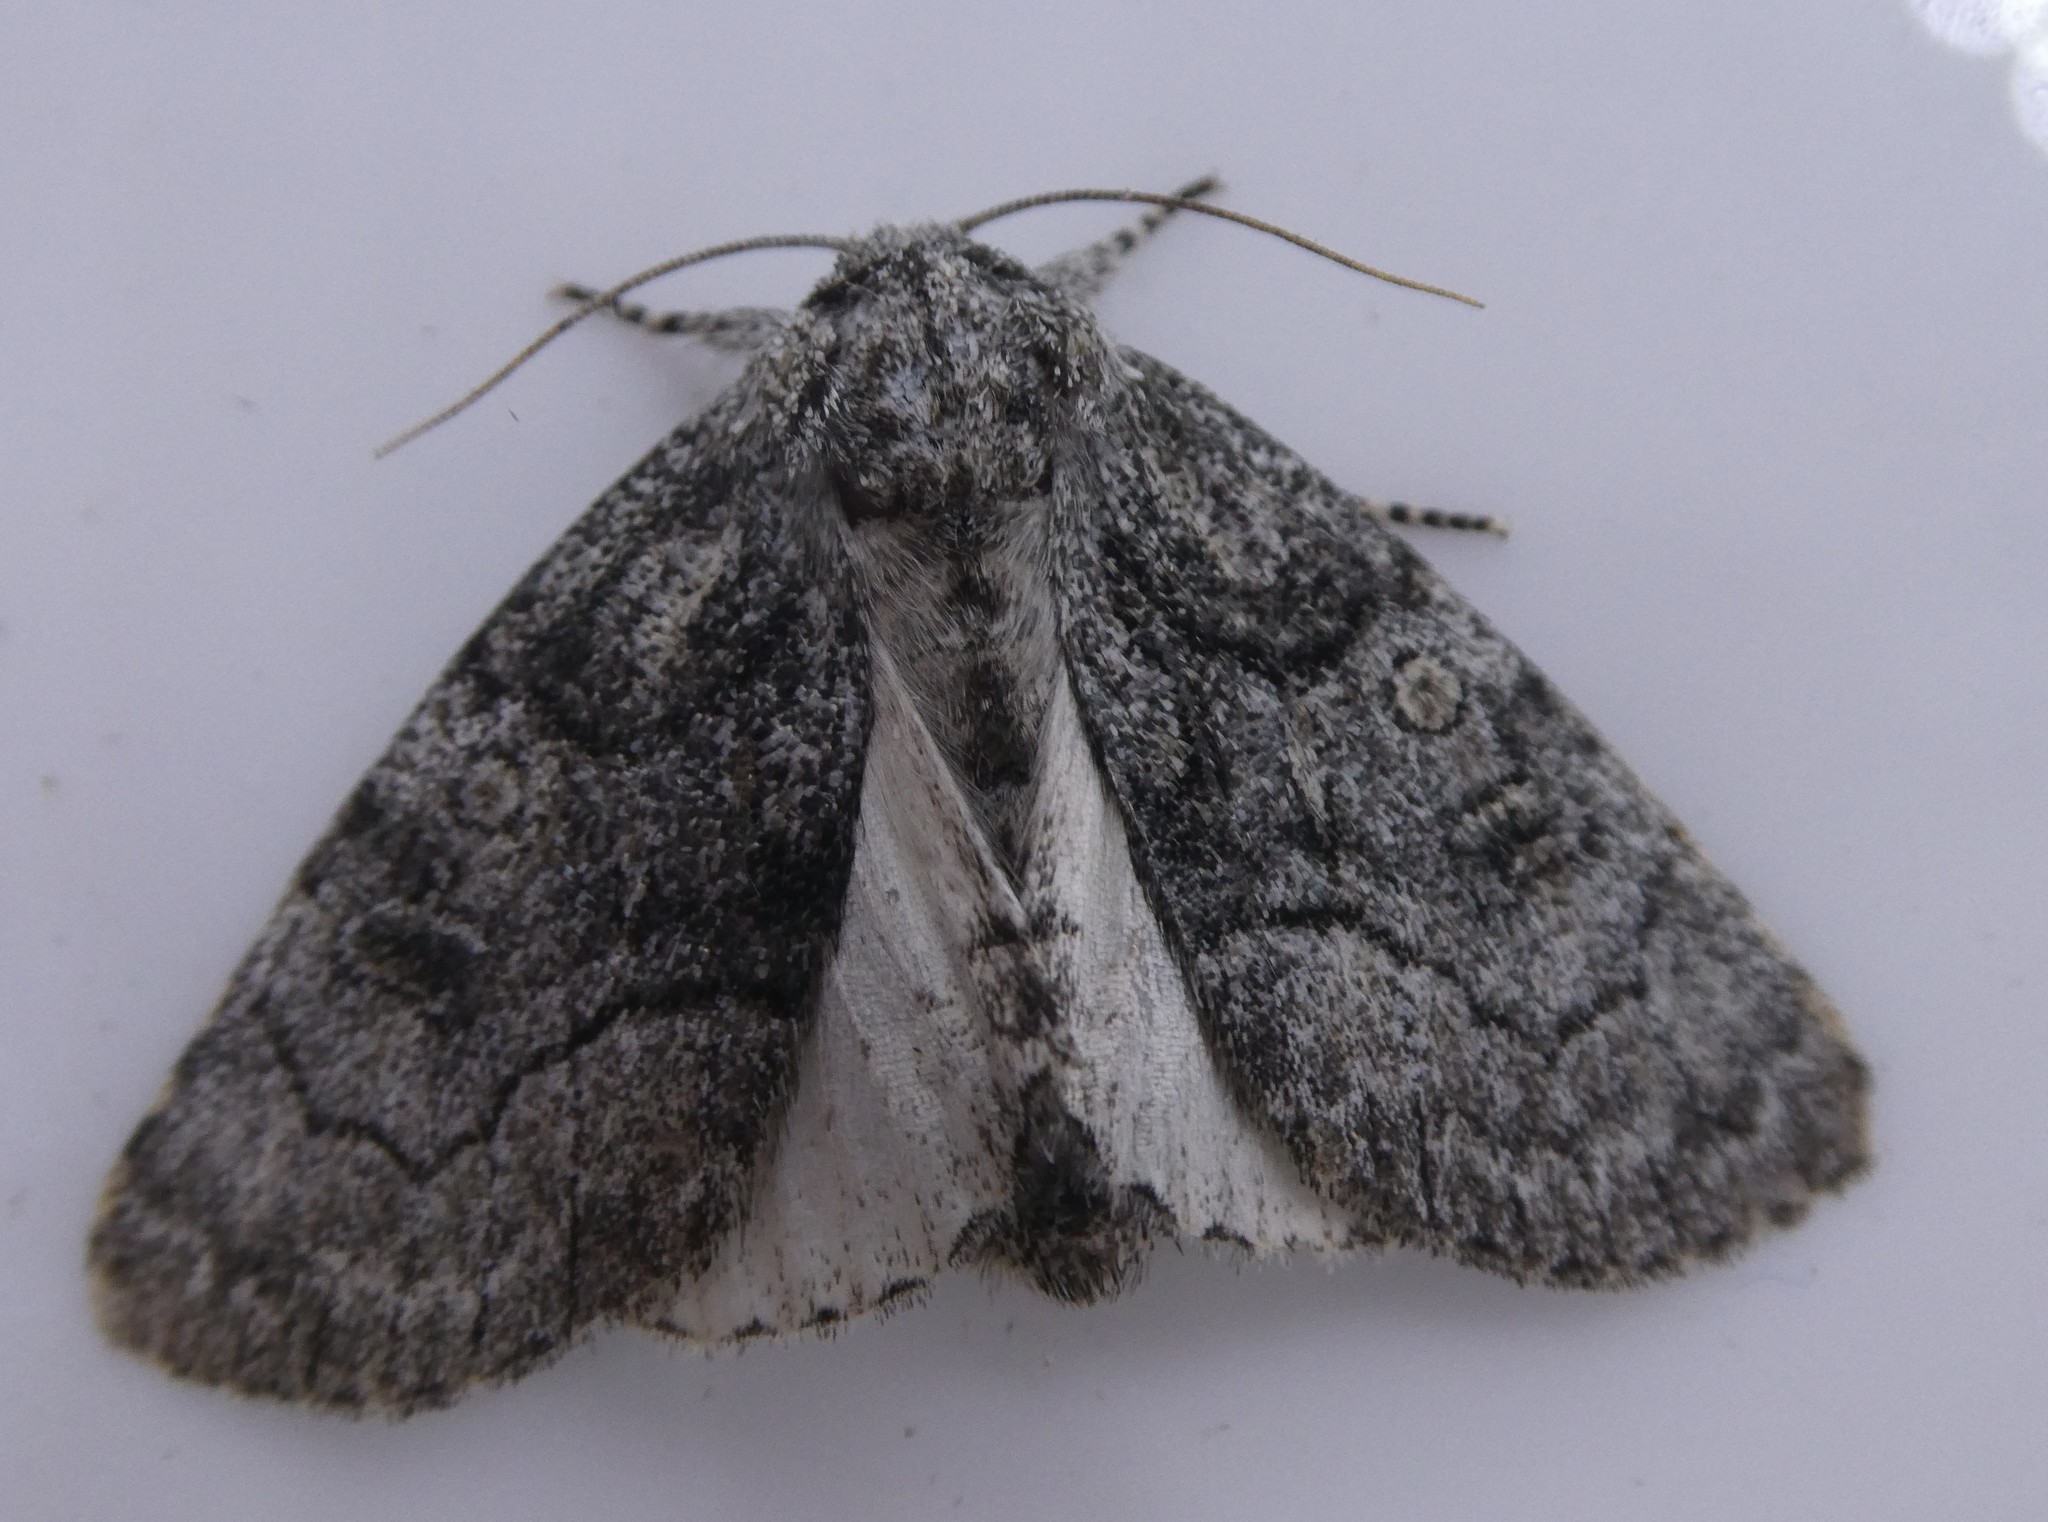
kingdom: Animalia
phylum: Arthropoda
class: Insecta
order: Lepidoptera
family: Noctuidae
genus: Raphia
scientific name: Raphia frater
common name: Brother
